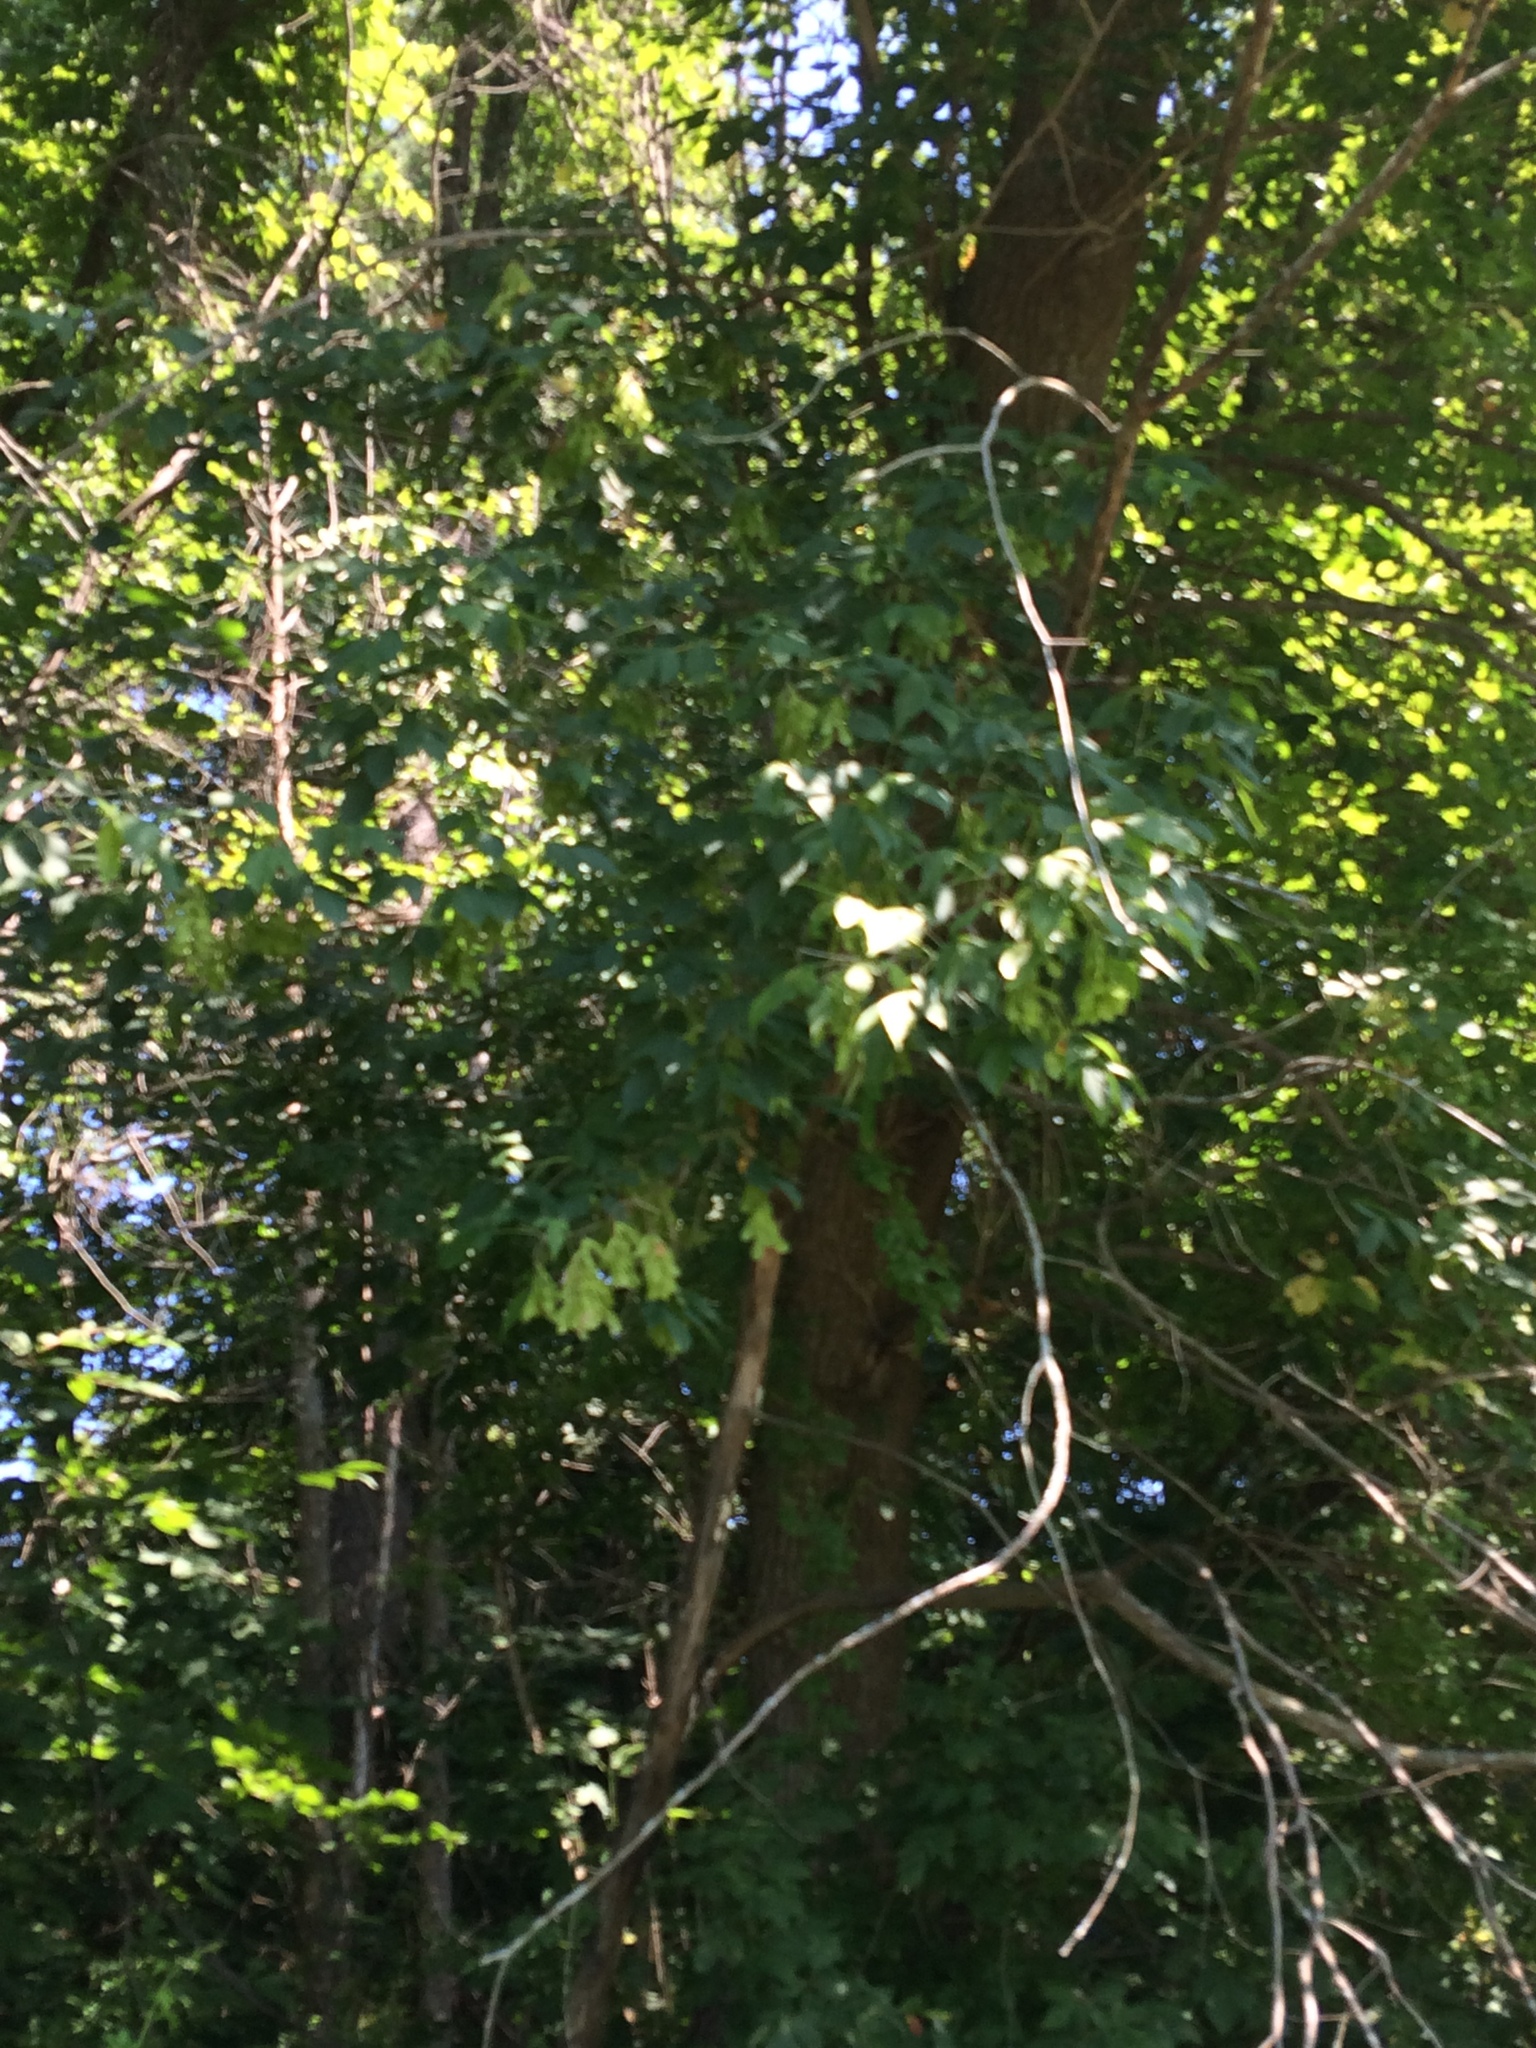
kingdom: Plantae
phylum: Tracheophyta
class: Magnoliopsida
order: Sapindales
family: Sapindaceae
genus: Acer
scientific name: Acer negundo
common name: Ashleaf maple
